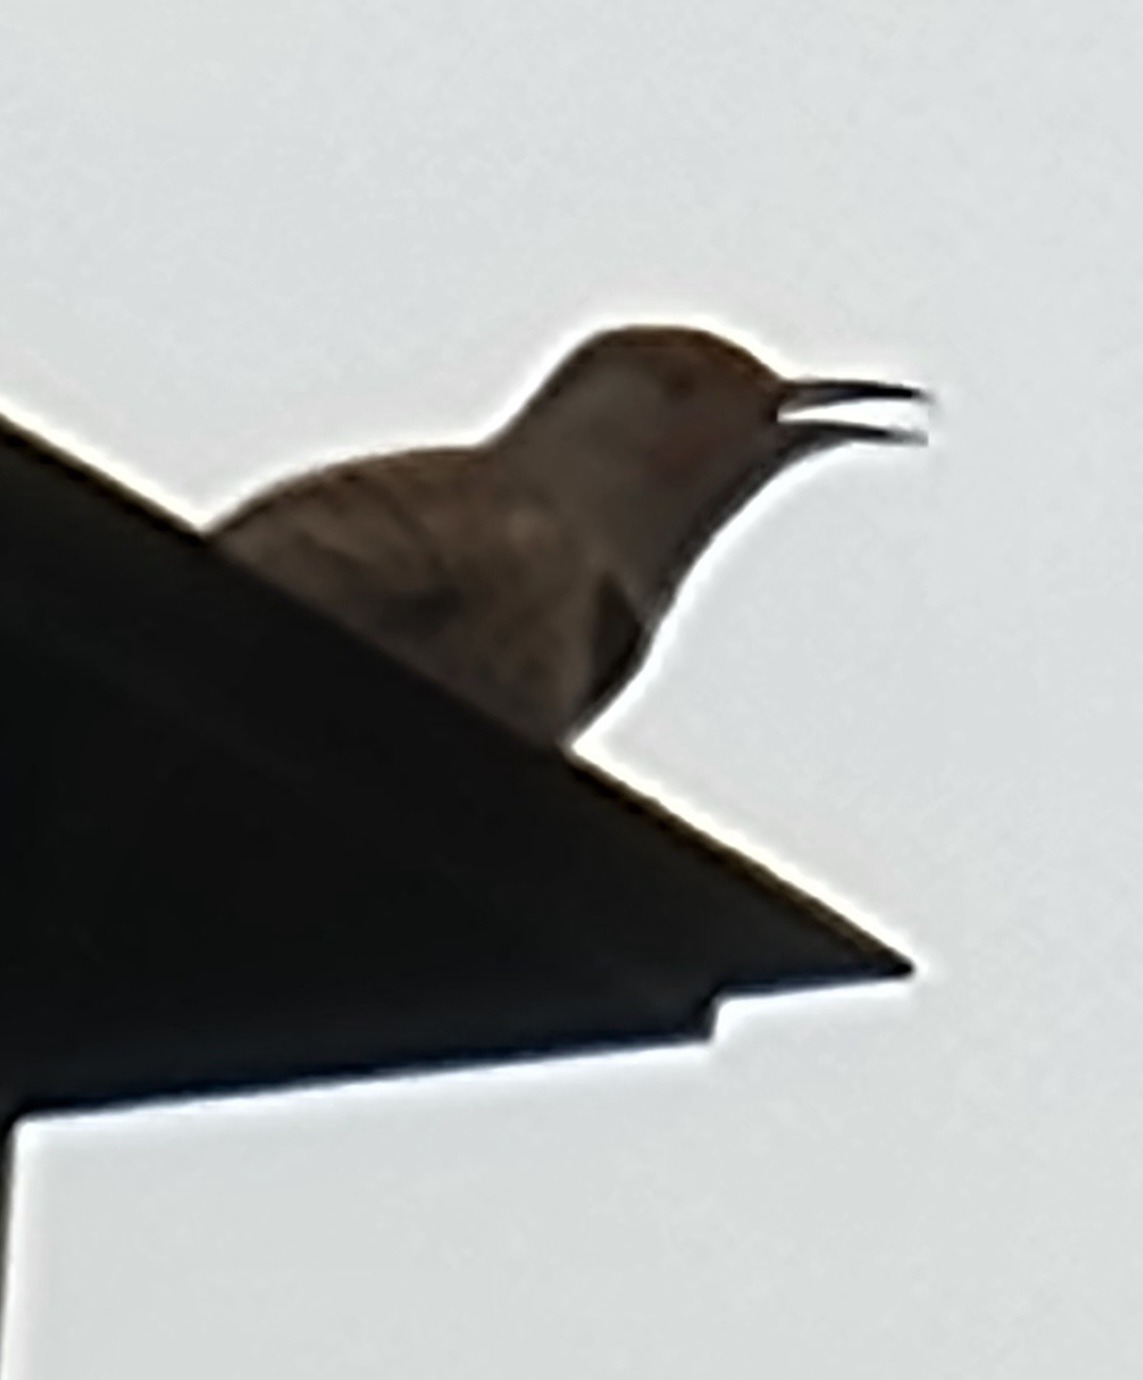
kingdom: Animalia
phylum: Chordata
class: Aves
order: Piciformes
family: Picidae
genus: Colaptes
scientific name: Colaptes auratus
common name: Northern flicker
